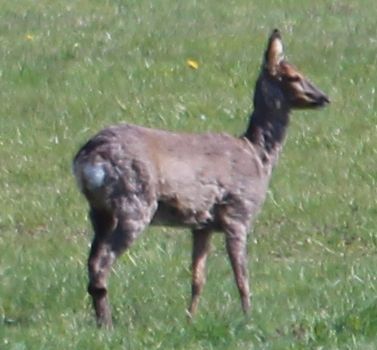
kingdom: Animalia
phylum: Chordata
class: Mammalia
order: Artiodactyla
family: Cervidae
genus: Capreolus
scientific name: Capreolus capreolus
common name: Western roe deer
